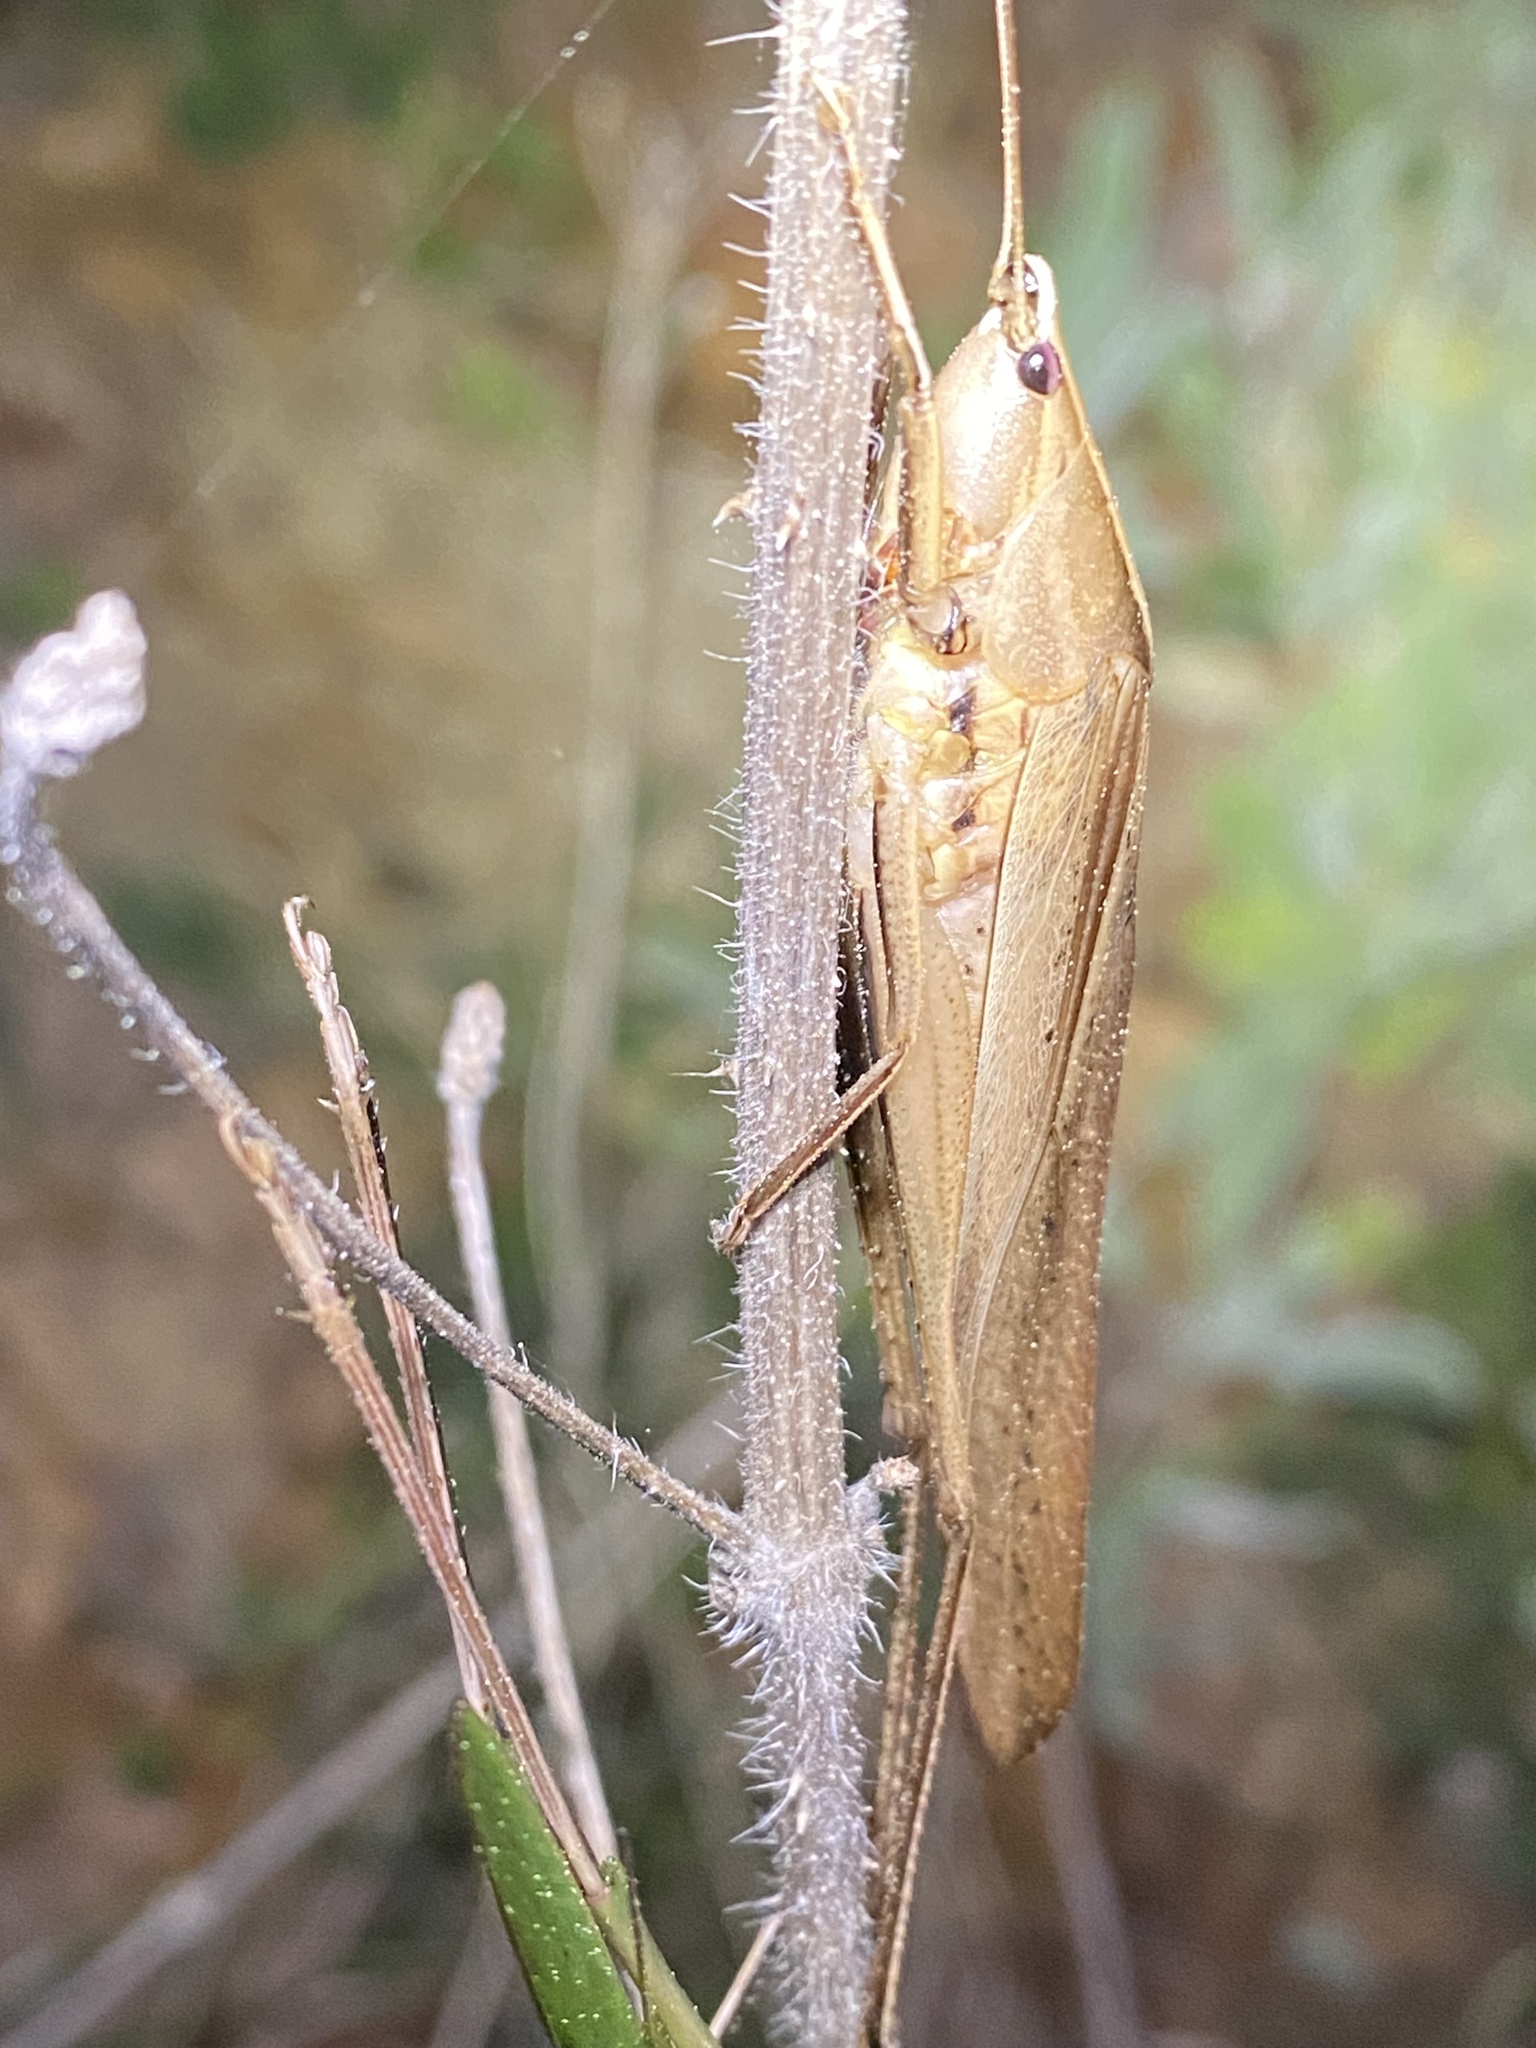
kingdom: Animalia
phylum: Arthropoda
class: Insecta
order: Orthoptera
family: Tettigoniidae
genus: Neoconocephalus
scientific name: Neoconocephalus triops
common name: Broad-tipped conehead
